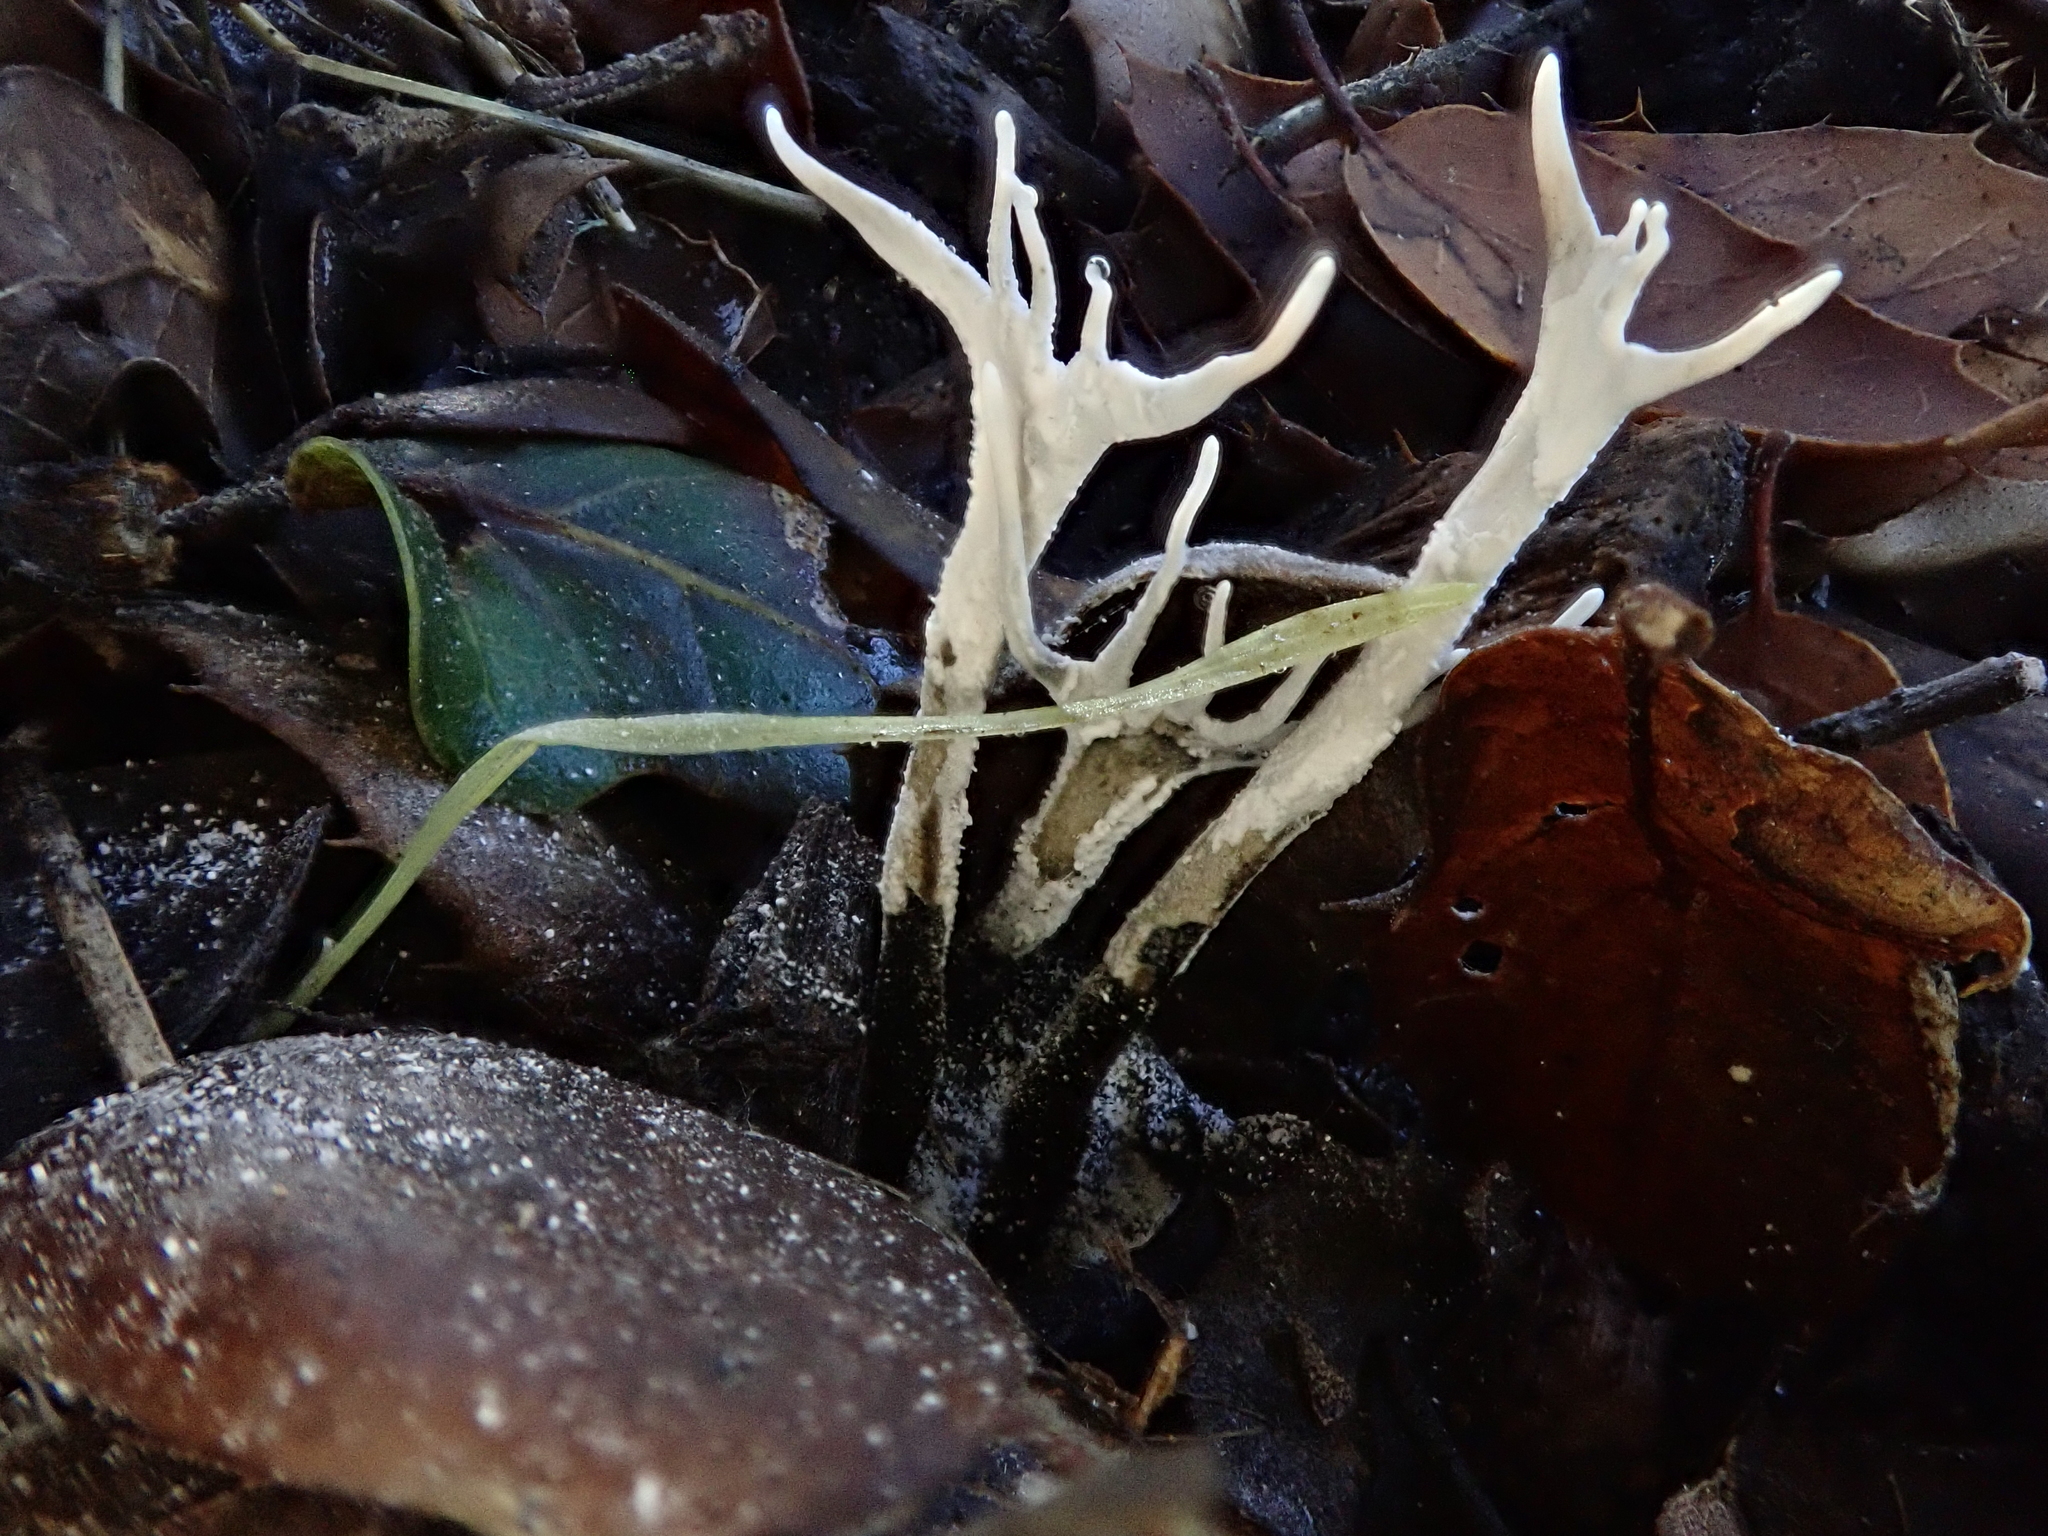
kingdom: Fungi
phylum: Ascomycota
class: Sordariomycetes
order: Xylariales
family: Xylariaceae
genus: Xylaria
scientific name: Xylaria hypoxylon
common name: Candle-snuff fungus
